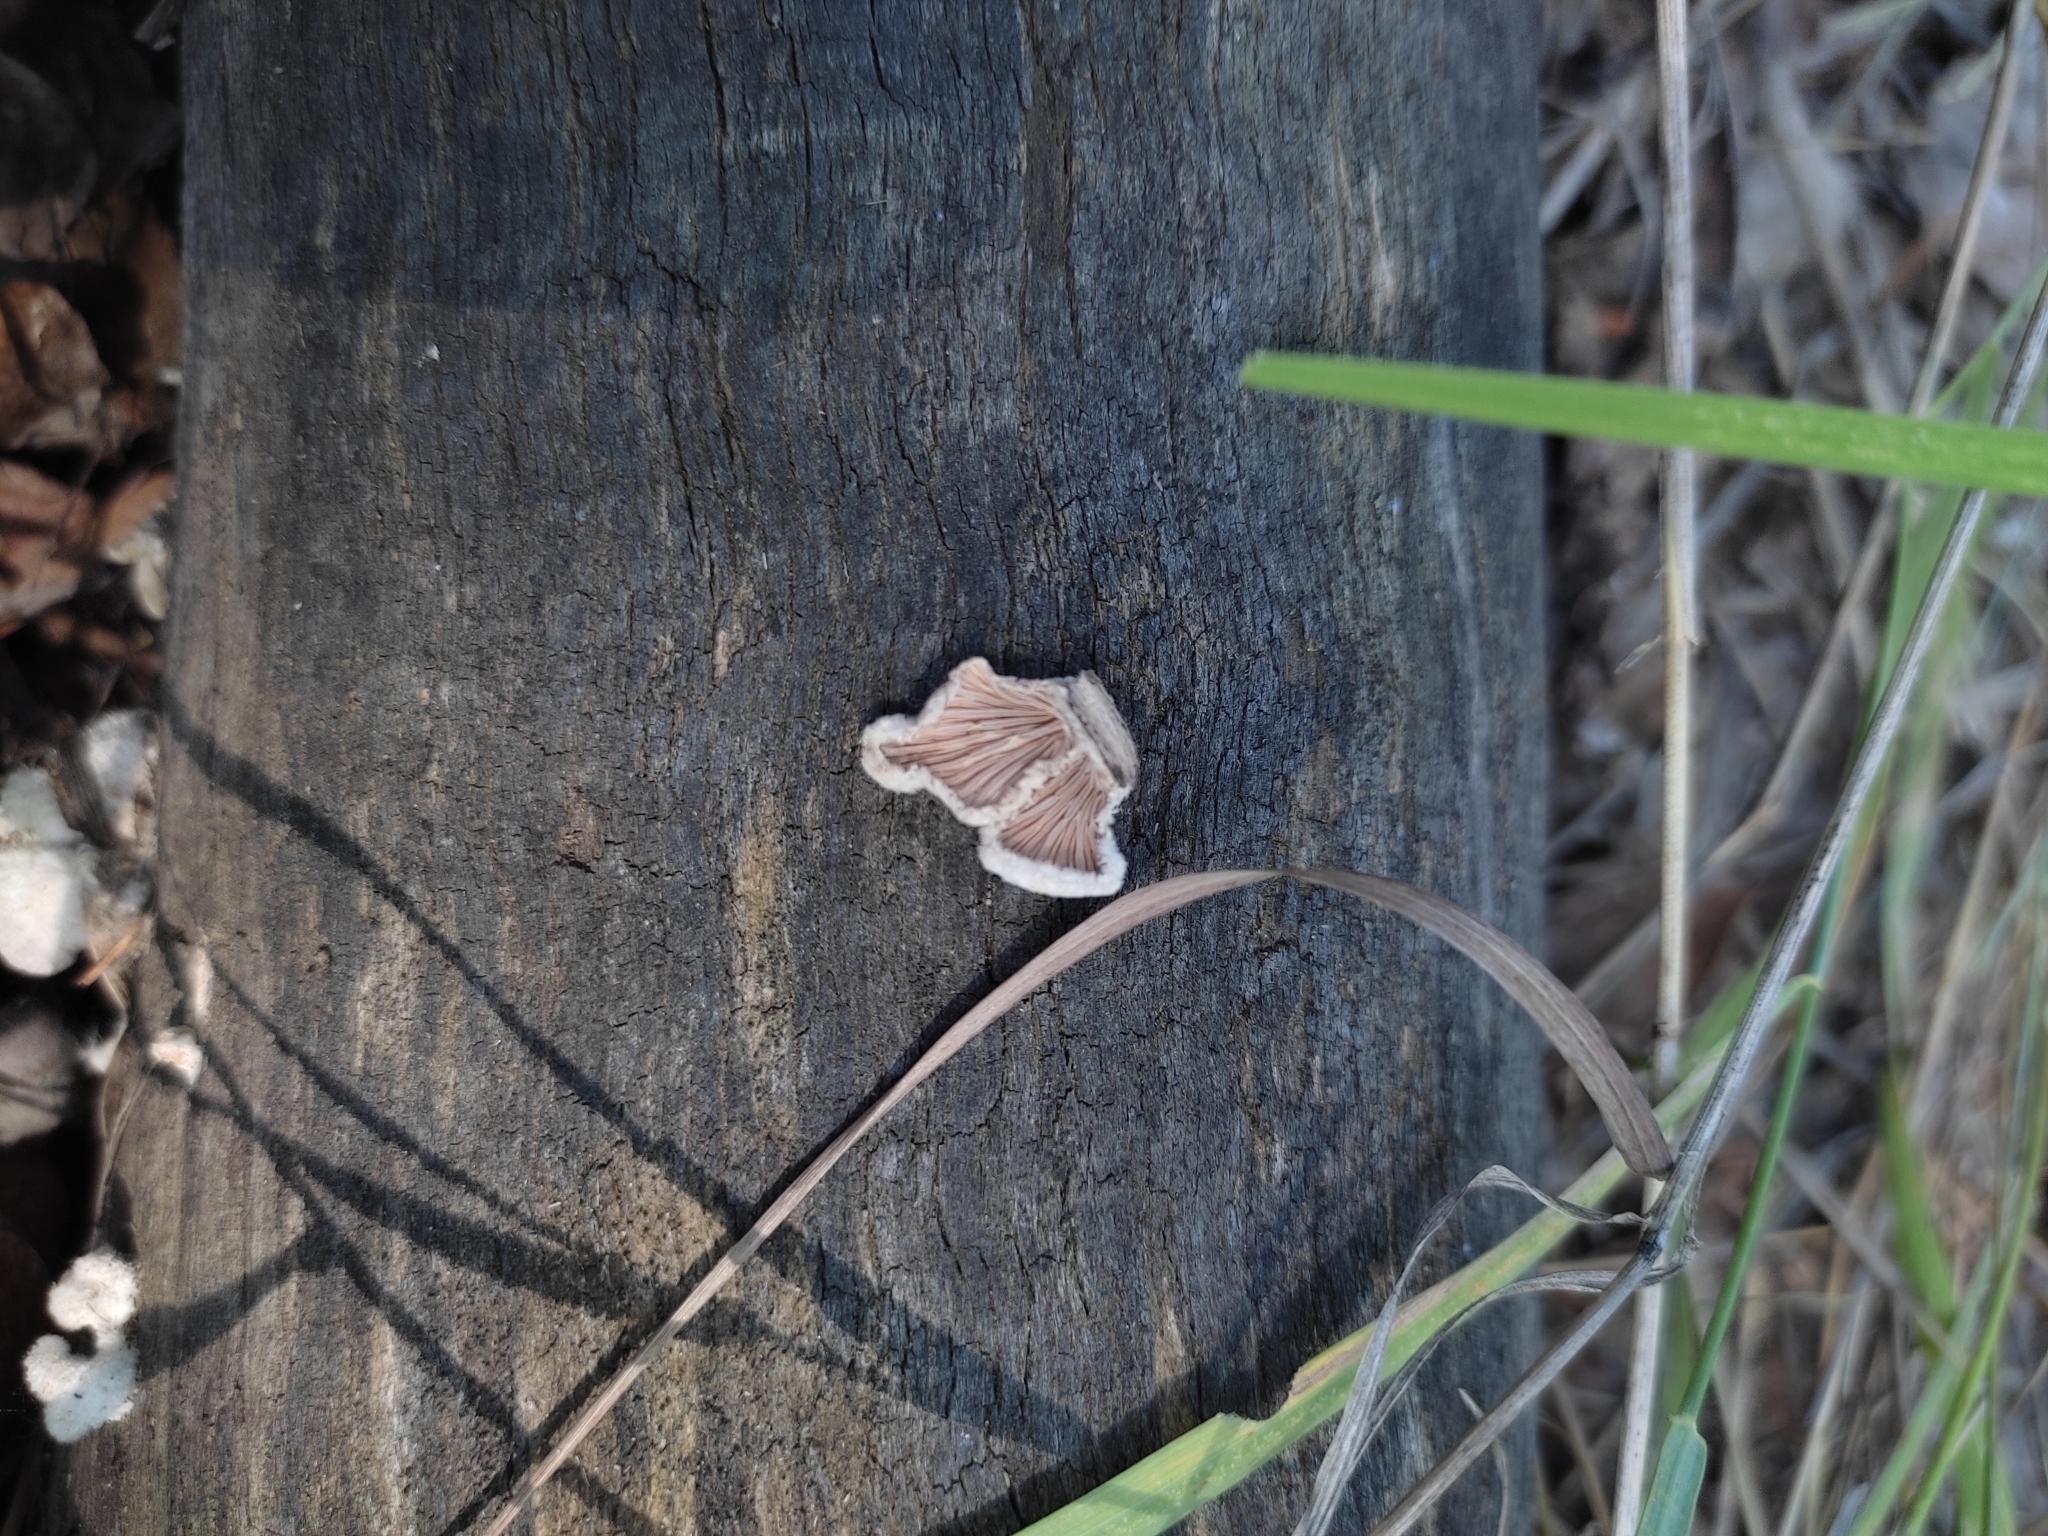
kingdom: Fungi
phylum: Basidiomycota
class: Agaricomycetes
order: Agaricales
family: Schizophyllaceae
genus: Schizophyllum
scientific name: Schizophyllum commune
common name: Common porecrust
